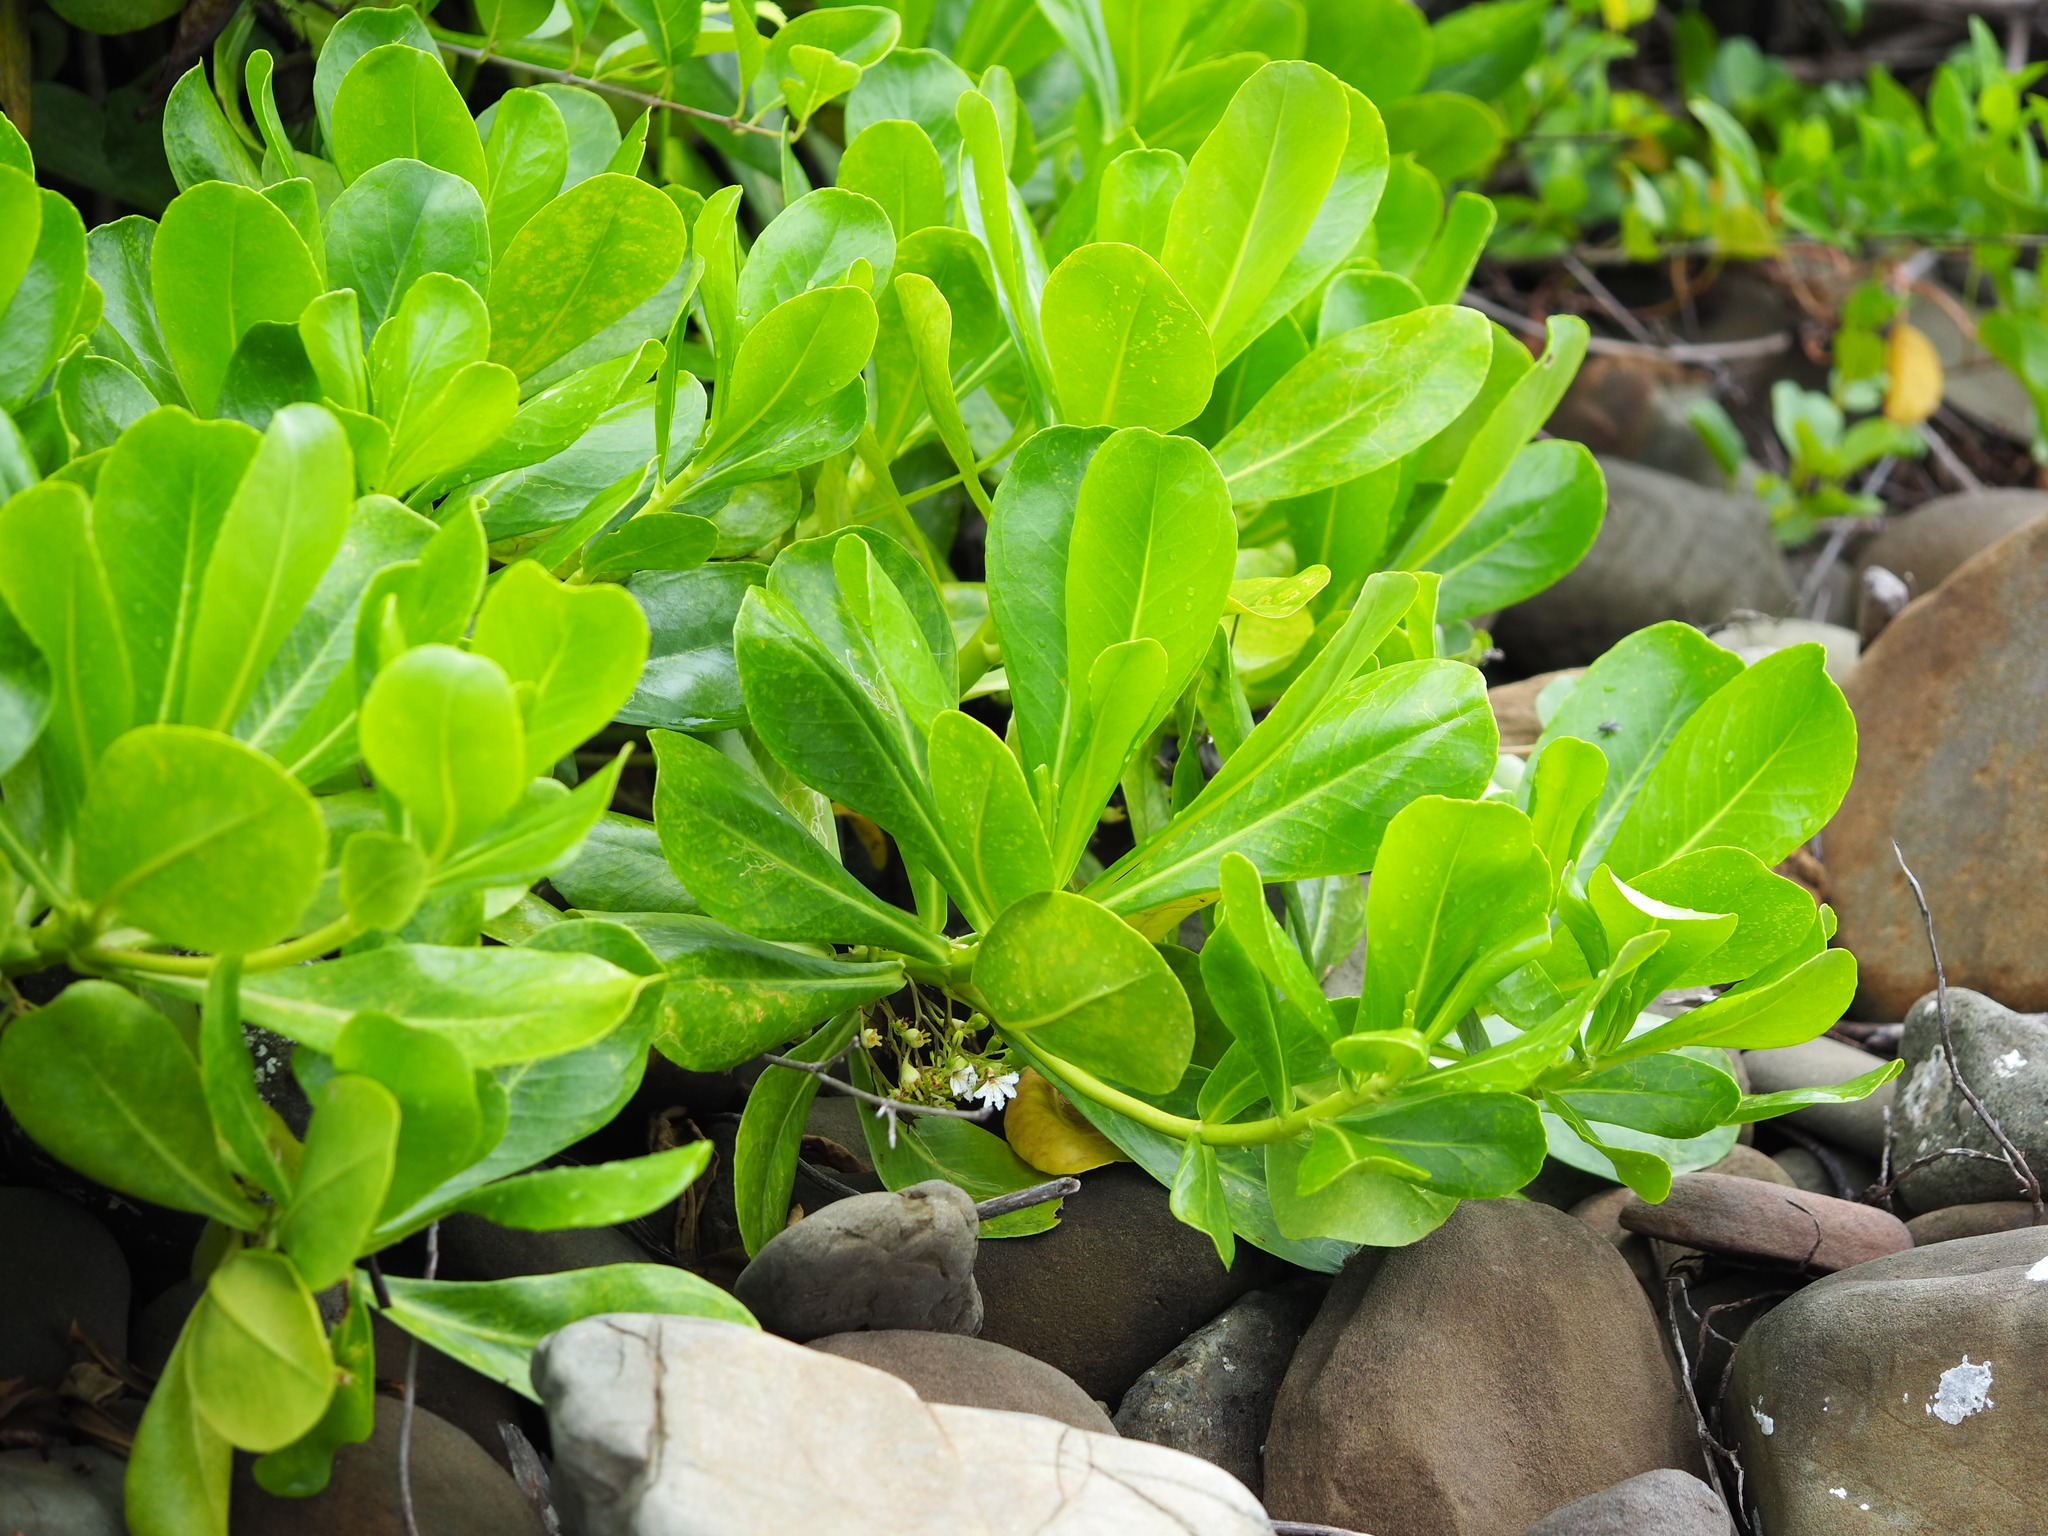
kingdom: Plantae
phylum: Tracheophyta
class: Magnoliopsida
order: Asterales
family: Goodeniaceae
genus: Scaevola
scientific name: Scaevola taccada
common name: Sea lettucetree
